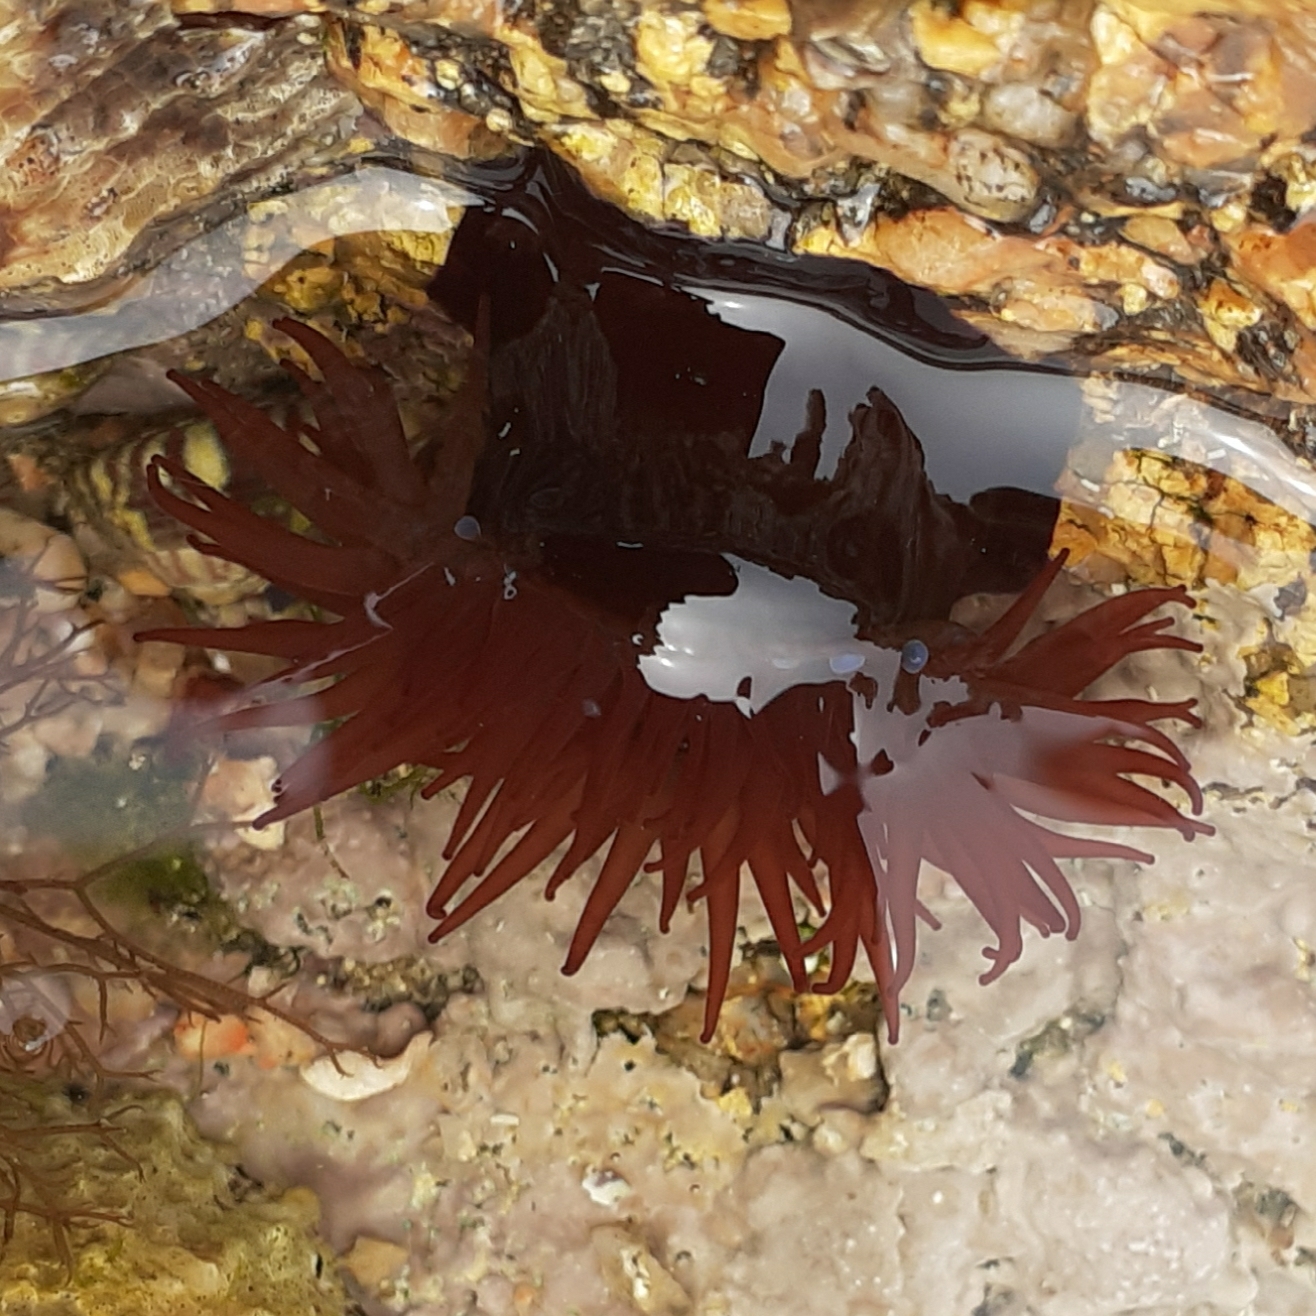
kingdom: Animalia
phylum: Cnidaria
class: Anthozoa
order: Actiniaria
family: Actiniidae
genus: Actinia
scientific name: Actinia equina
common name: Beadlet anemone
